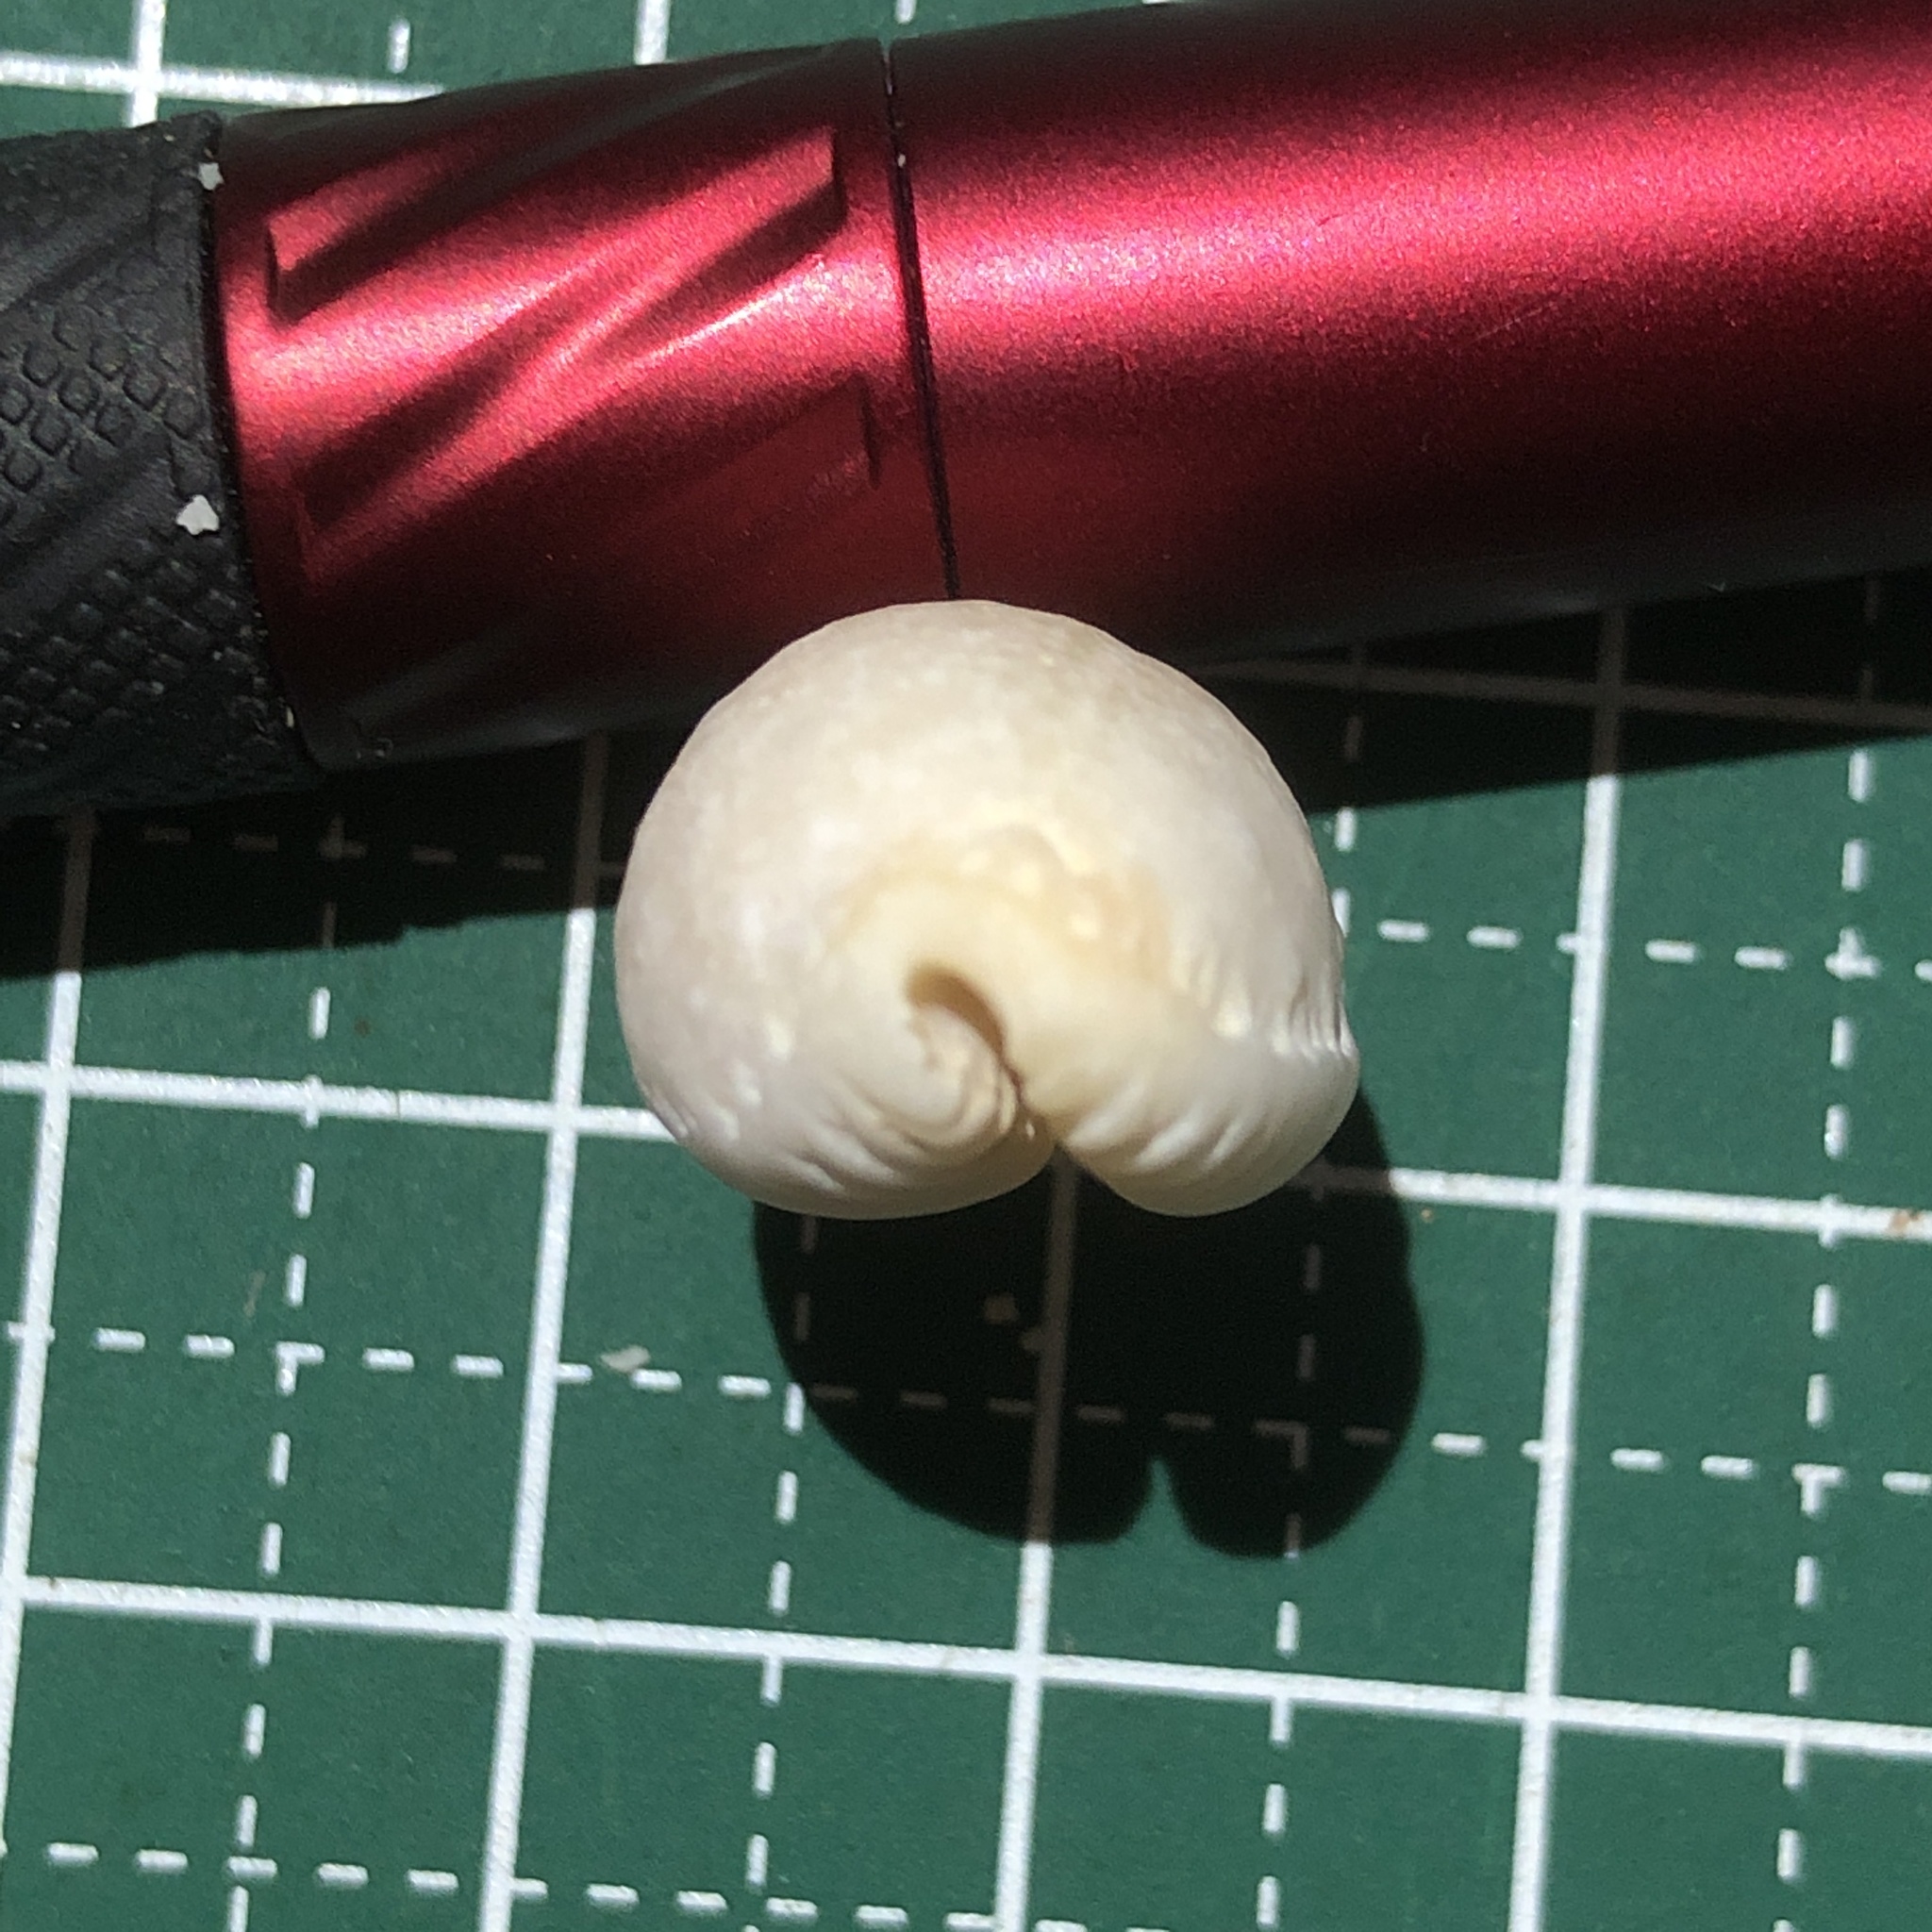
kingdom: Animalia
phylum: Mollusca
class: Gastropoda
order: Littorinimorpha
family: Cypraeidae
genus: Staphylaea
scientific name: Staphylaea limacina
